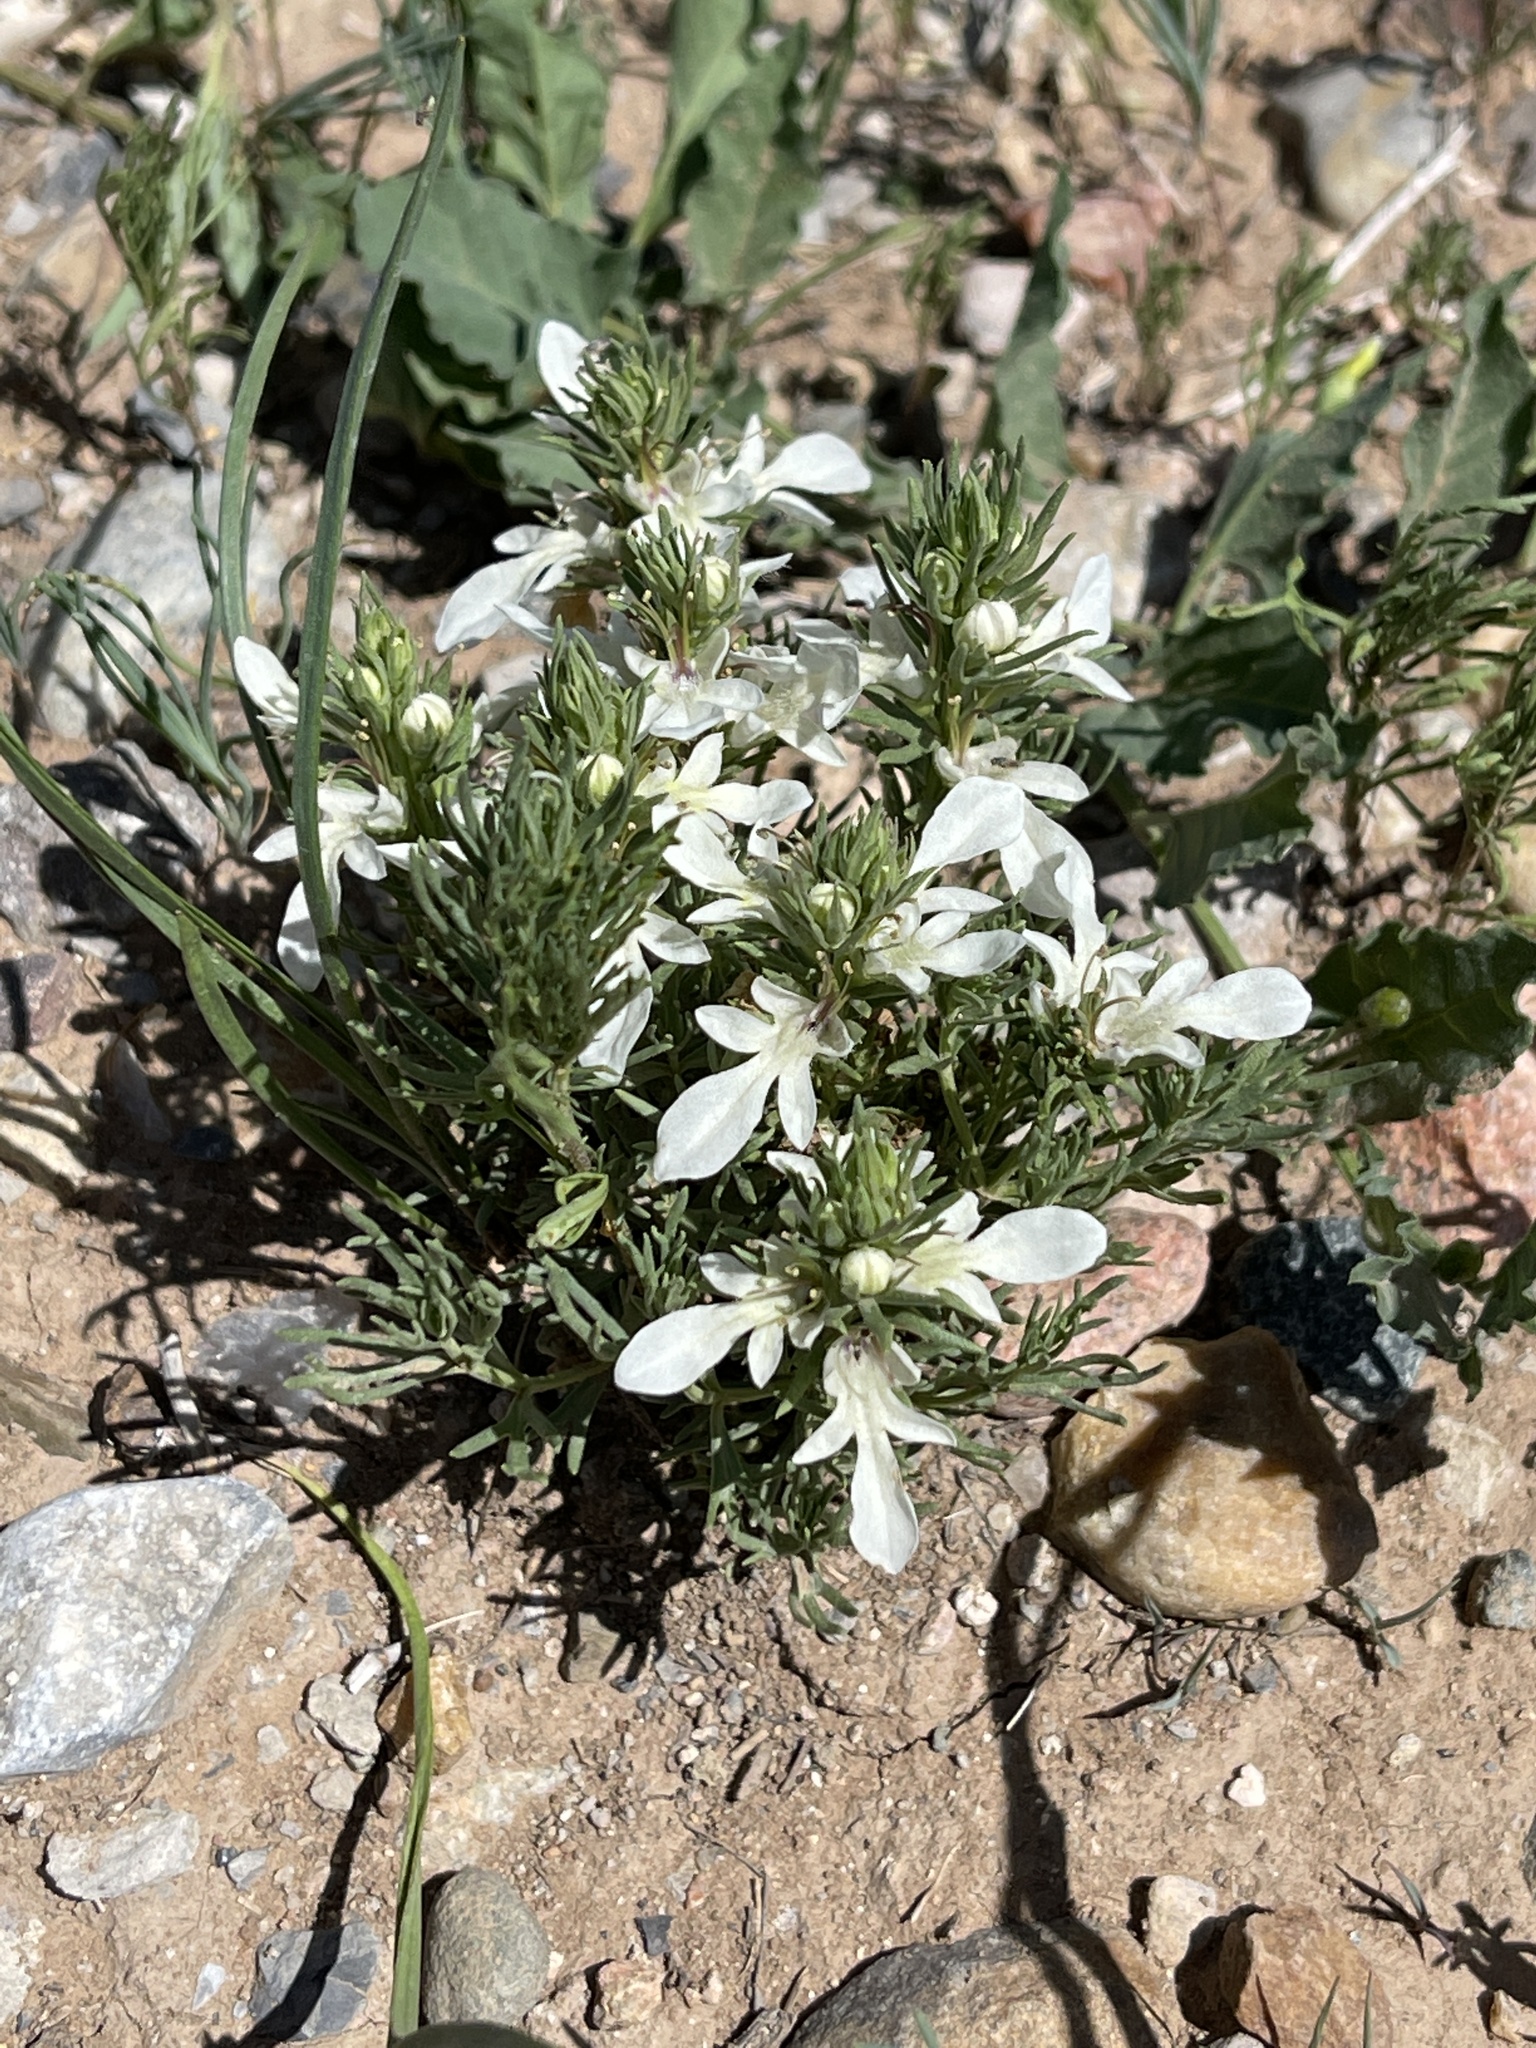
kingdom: Plantae
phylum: Tracheophyta
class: Magnoliopsida
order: Lamiales
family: Lamiaceae
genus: Teucrium
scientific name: Teucrium laciniatum
